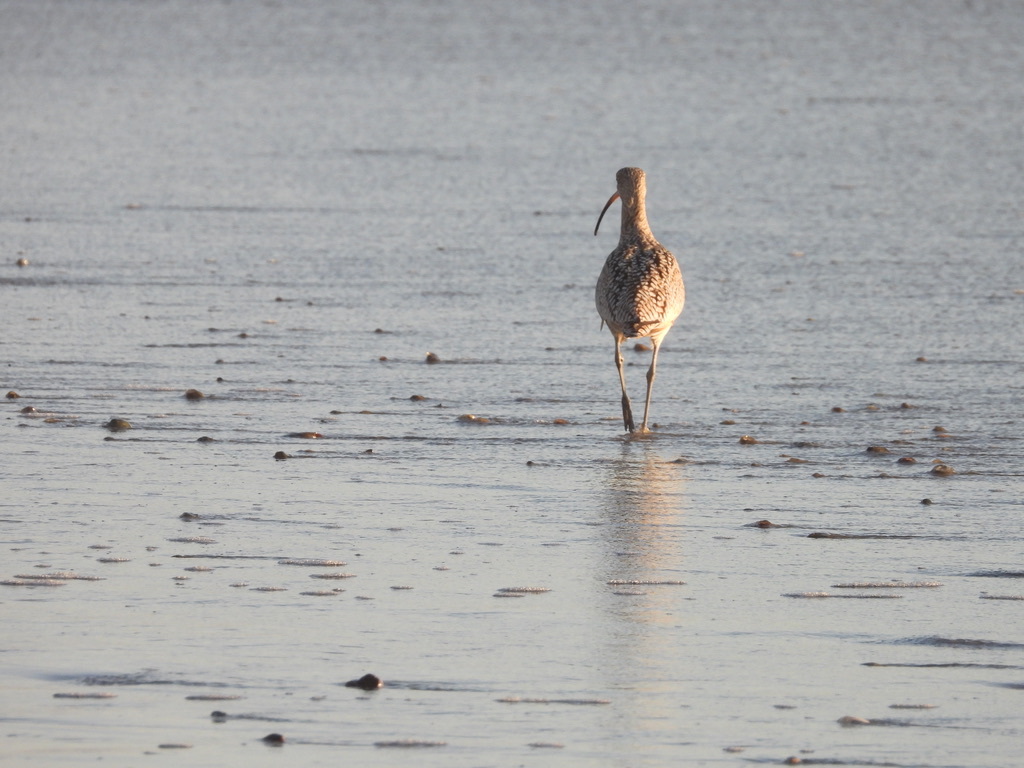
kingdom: Animalia
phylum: Chordata
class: Aves
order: Charadriiformes
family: Scolopacidae
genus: Numenius
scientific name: Numenius americanus
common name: Long-billed curlew
